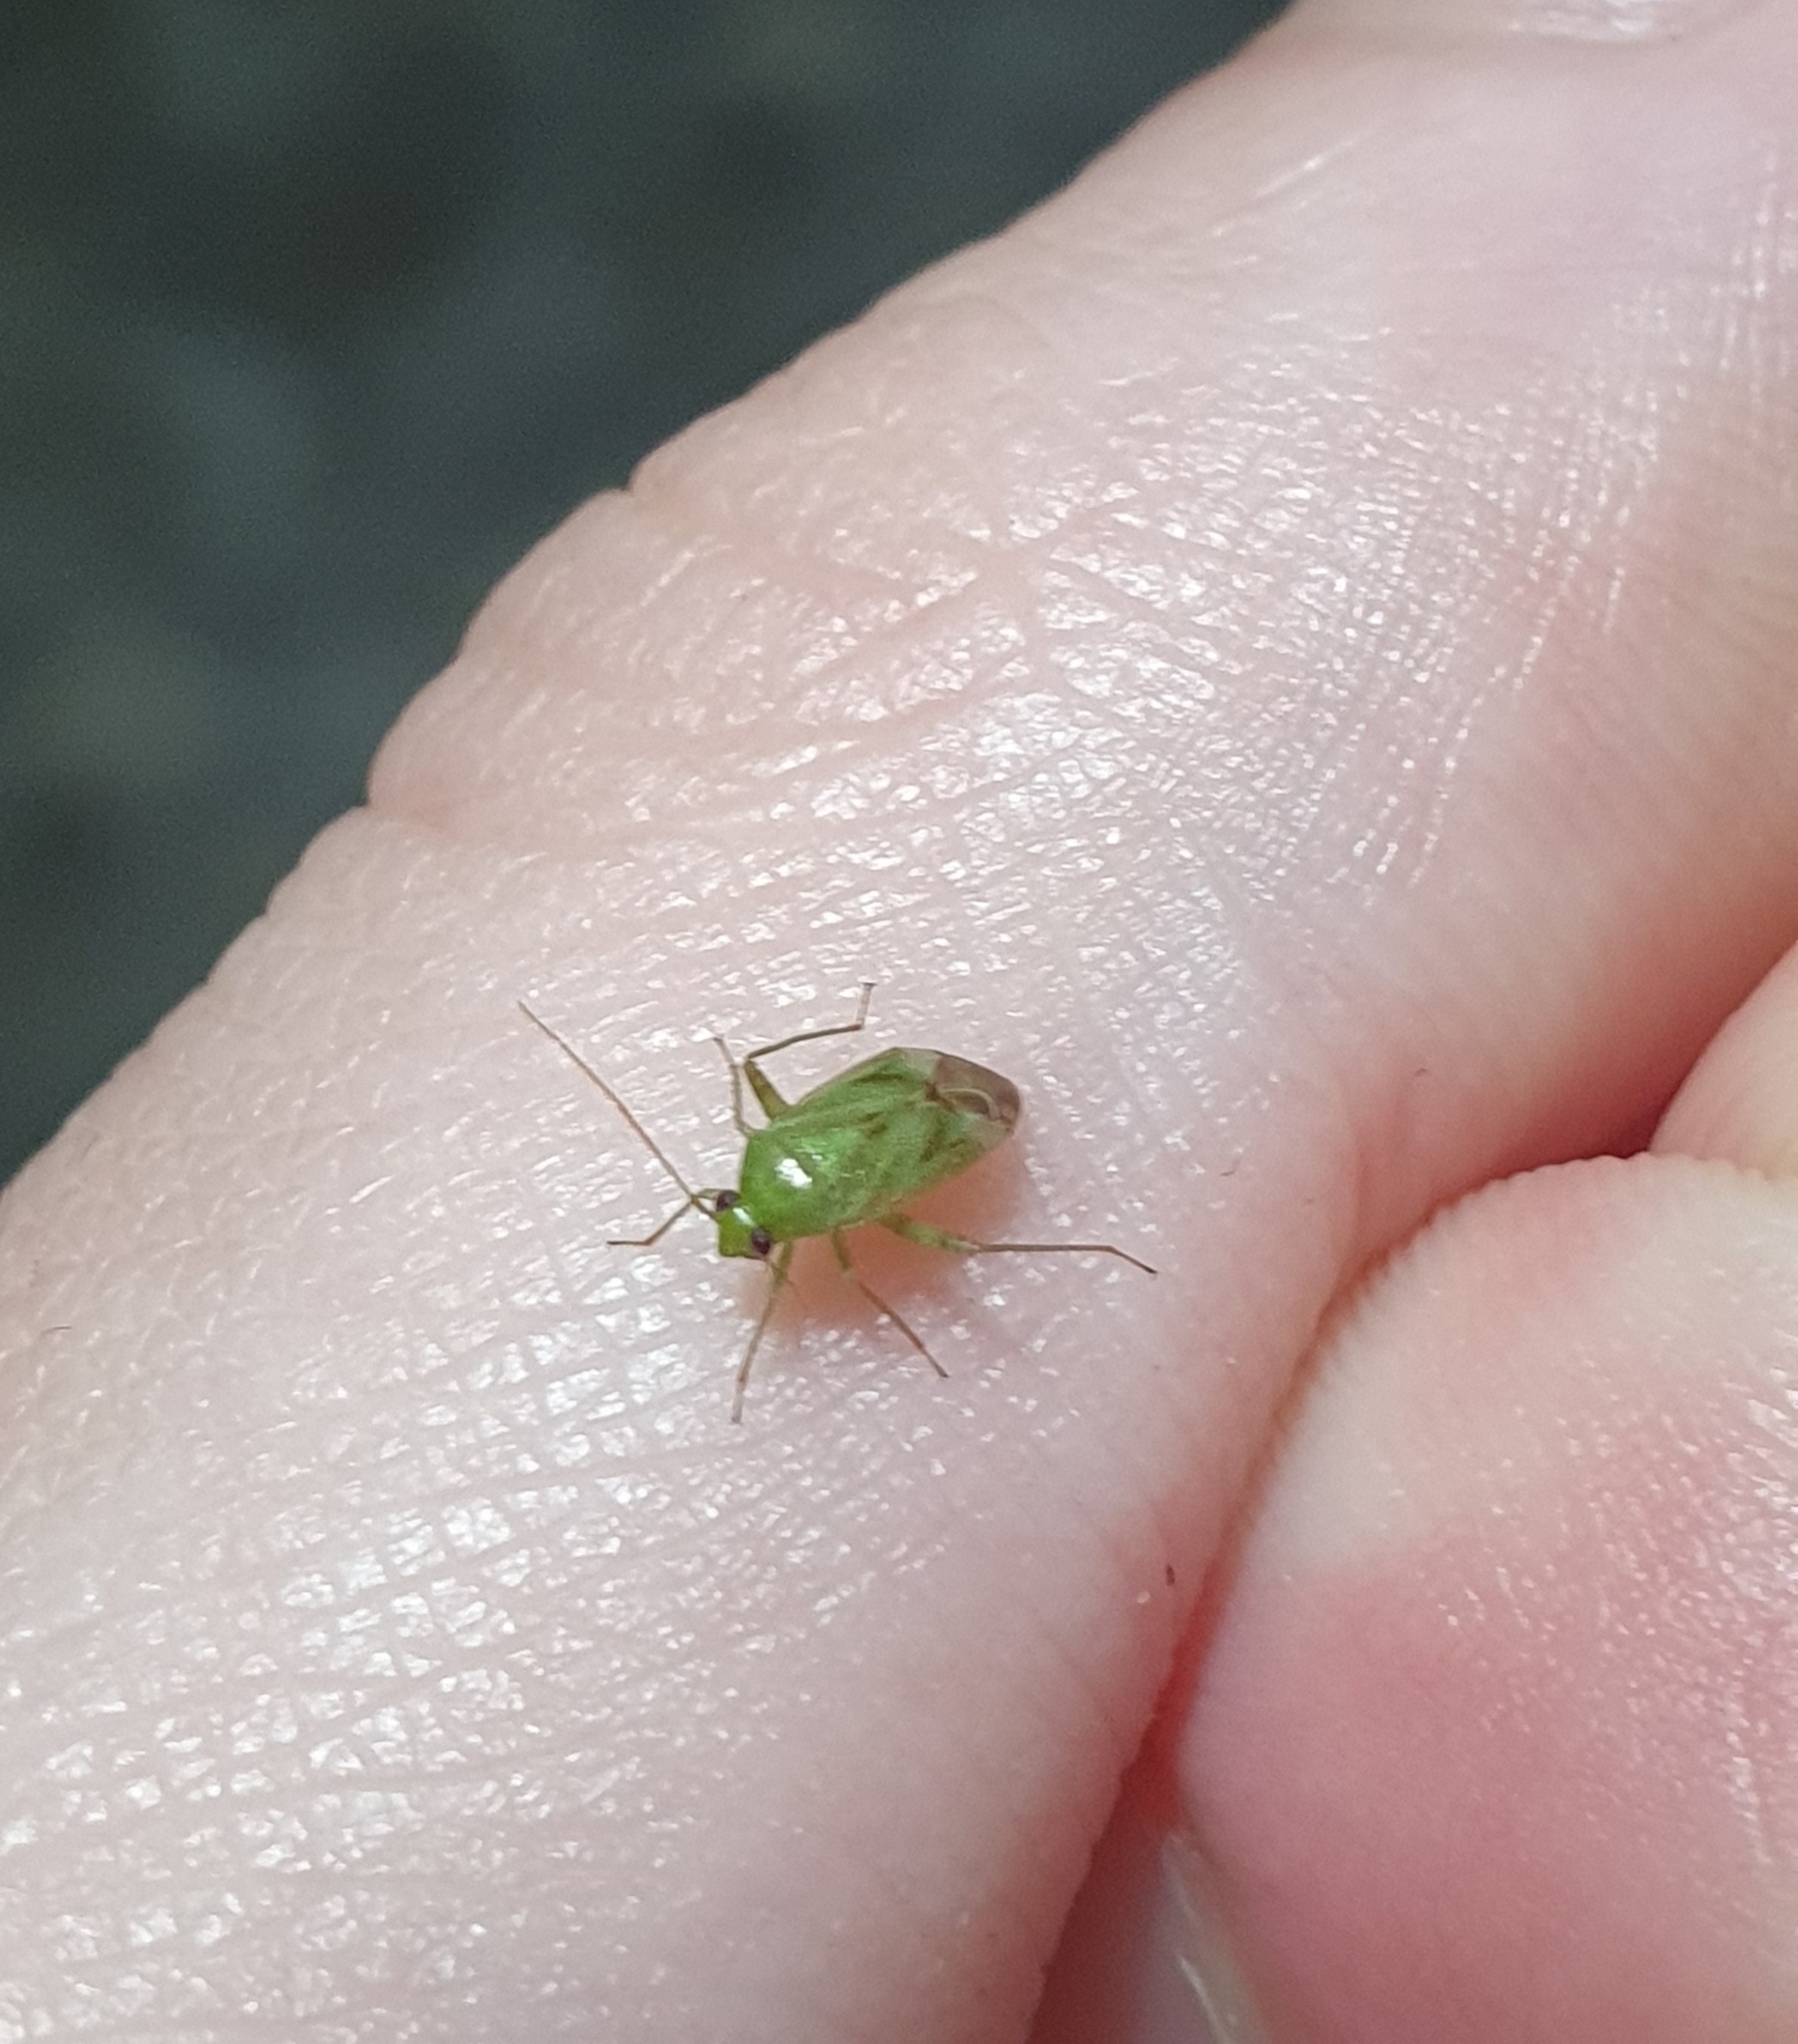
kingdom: Animalia
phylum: Arthropoda
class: Insecta
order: Hemiptera
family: Miridae
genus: Taylorilygus
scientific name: Taylorilygus apicalis
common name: Plant bug
